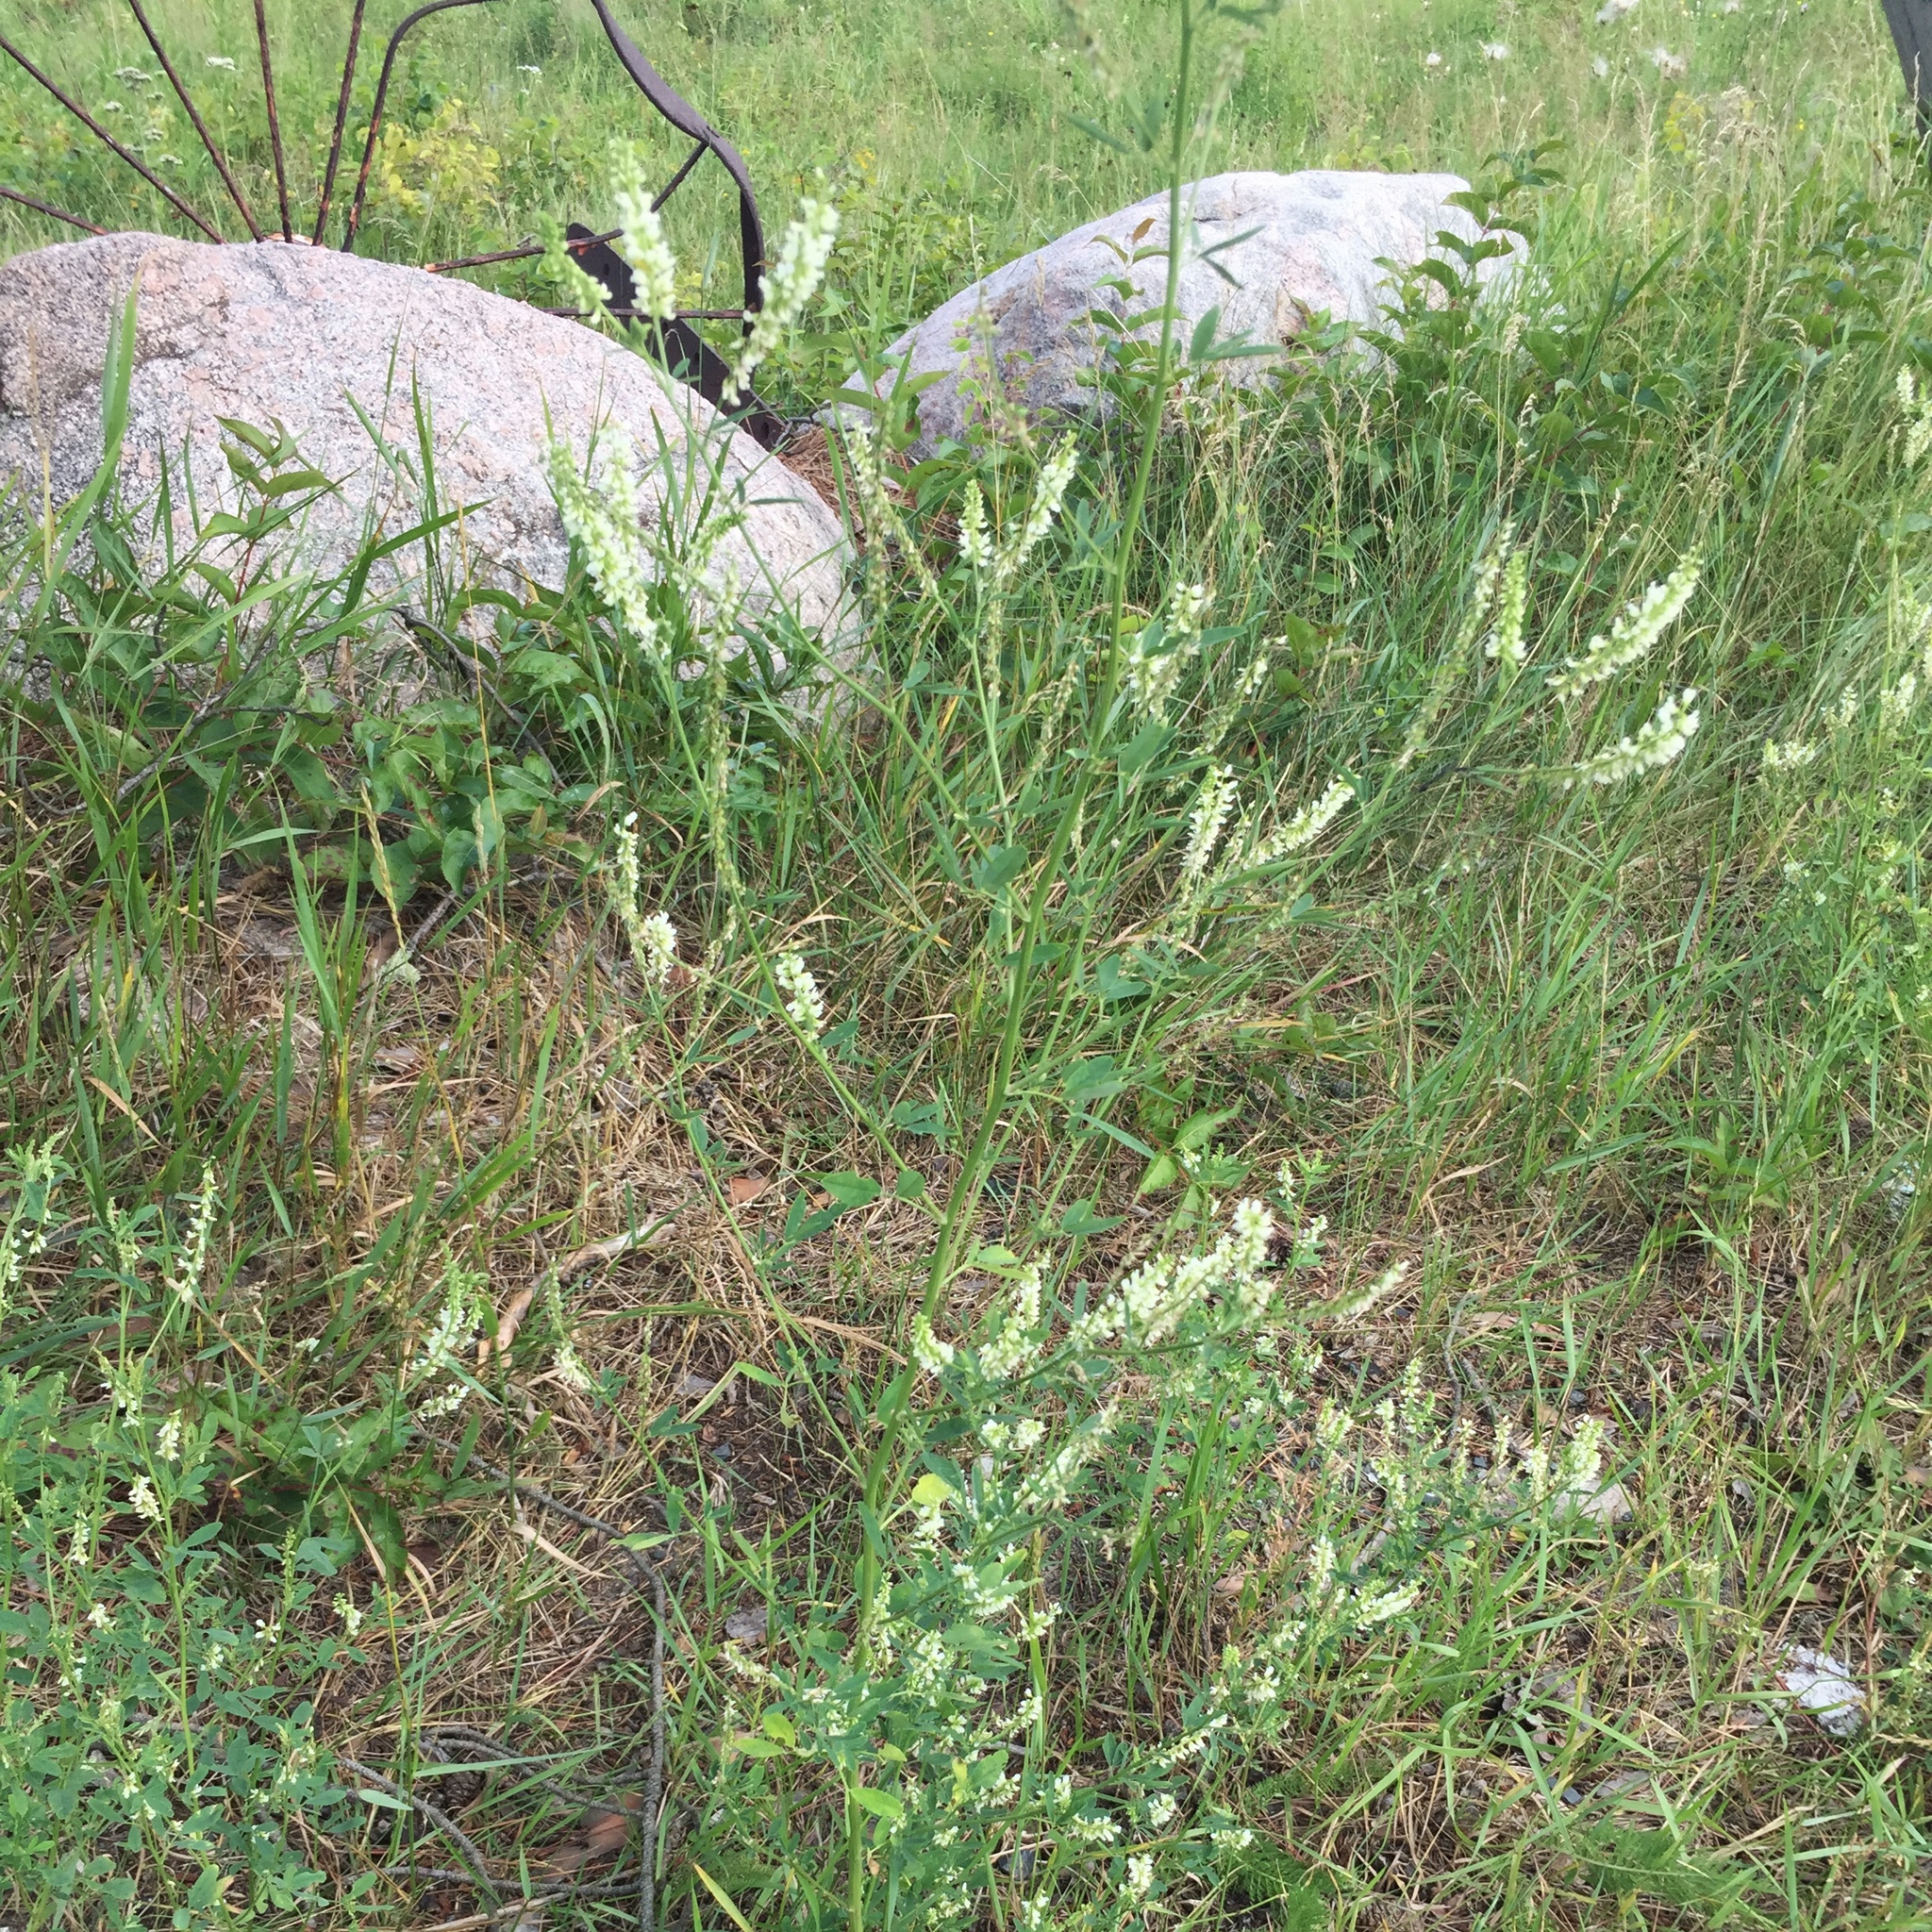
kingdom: Plantae
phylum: Tracheophyta
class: Magnoliopsida
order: Fabales
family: Fabaceae
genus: Melilotus
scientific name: Melilotus albus
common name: White melilot
